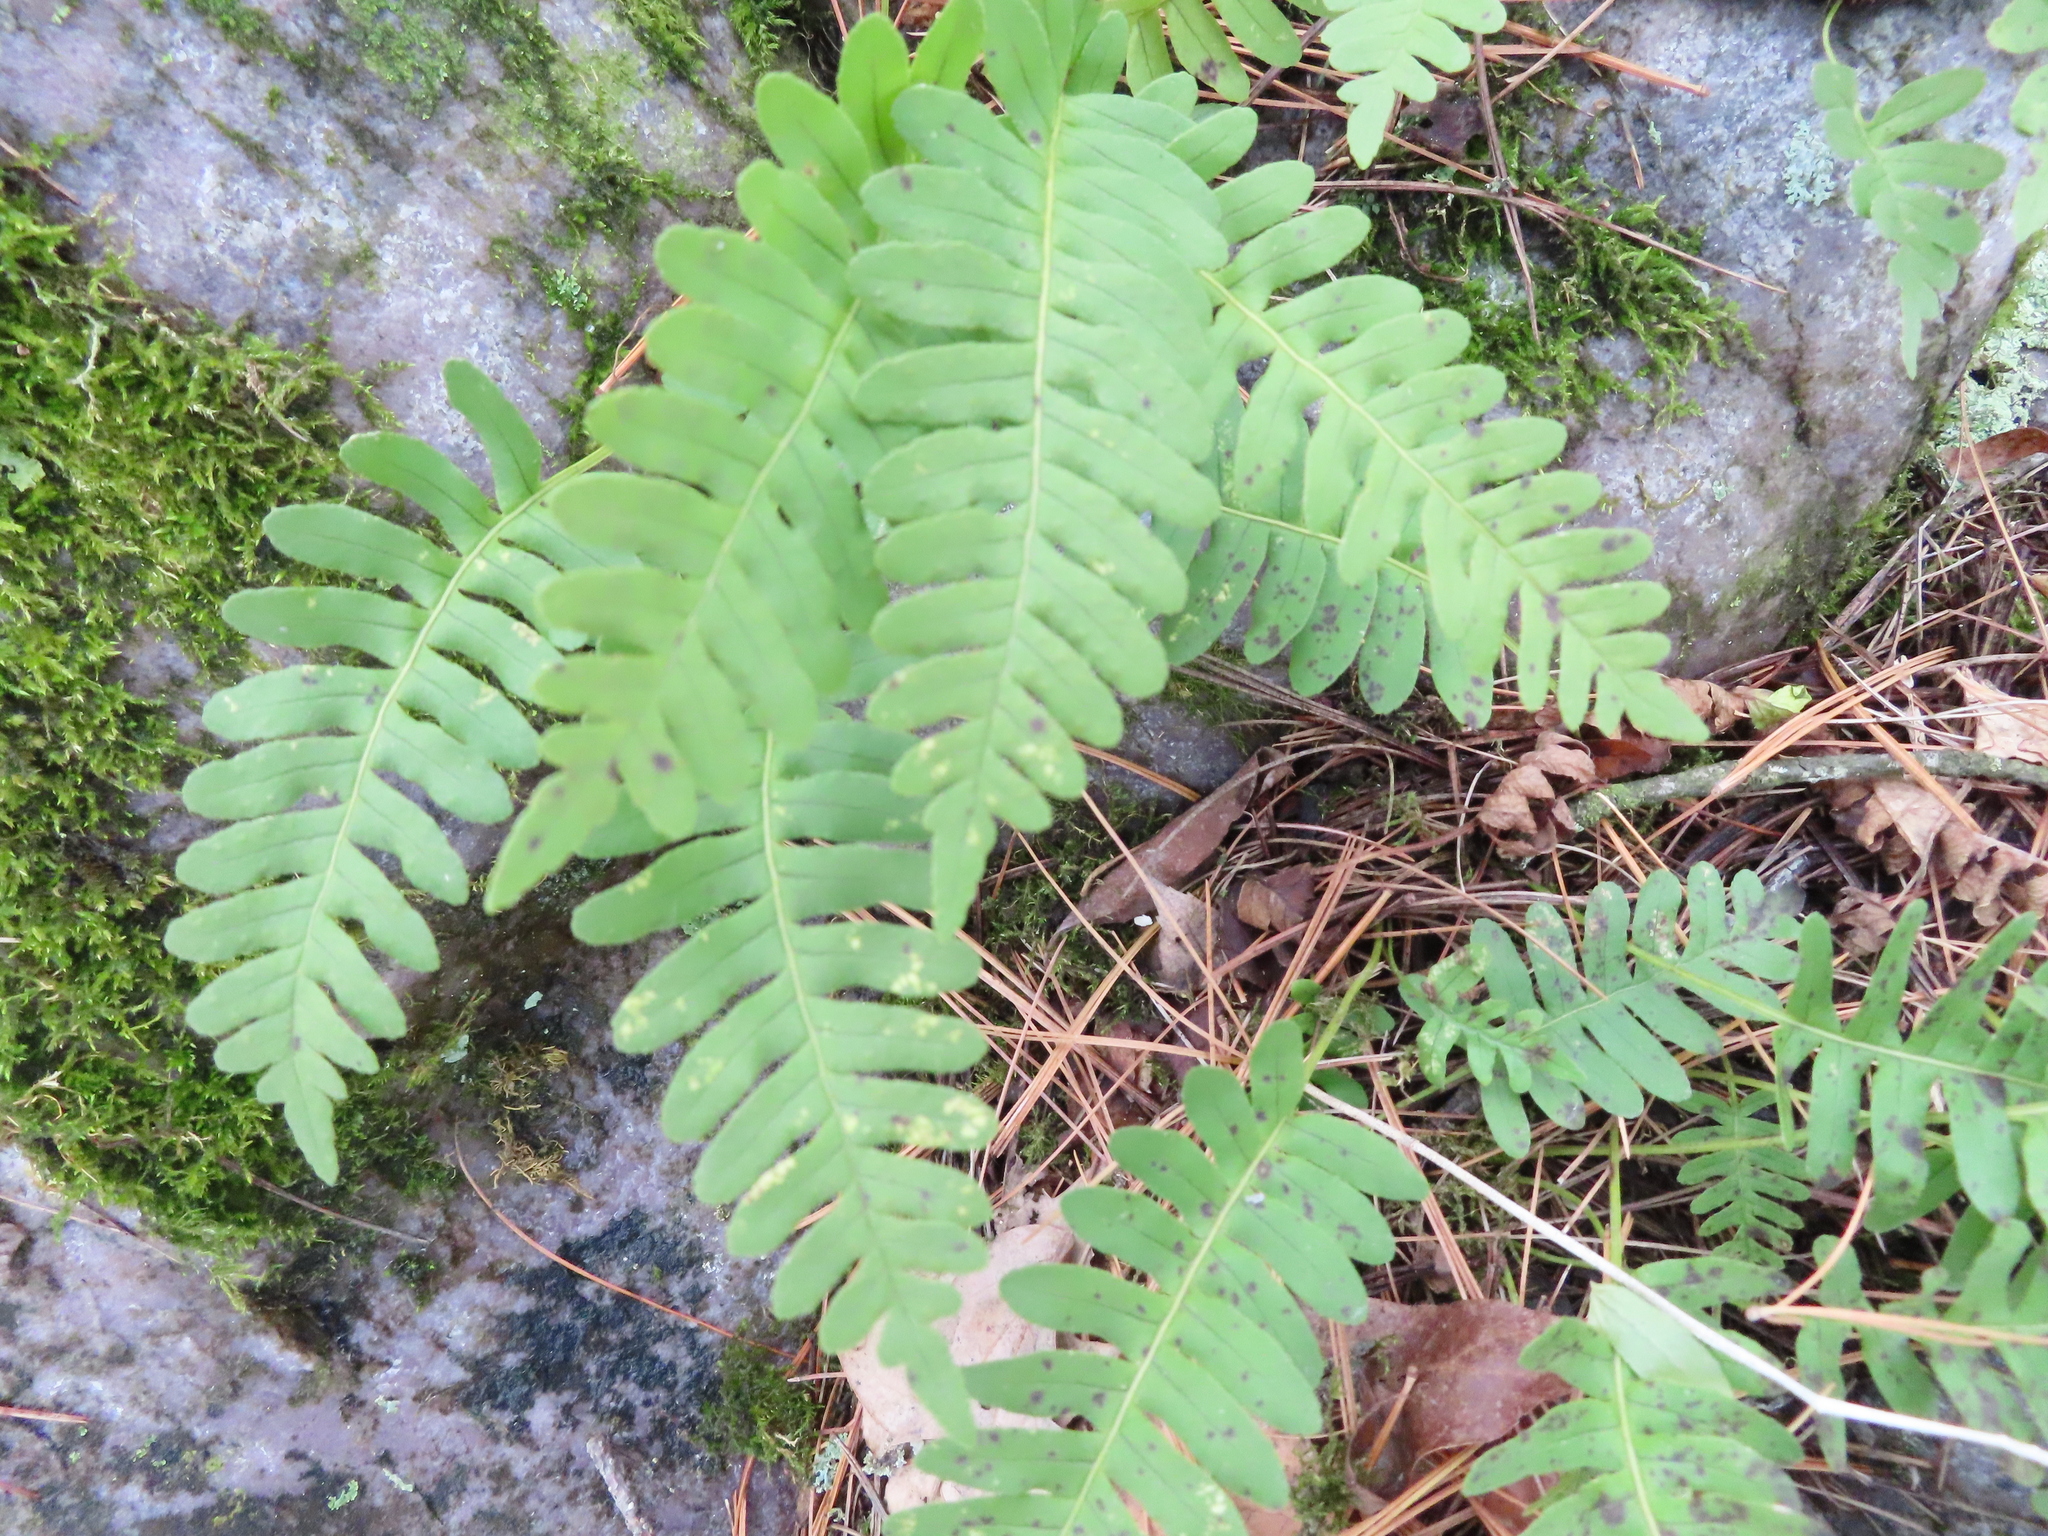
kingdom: Plantae
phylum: Tracheophyta
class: Polypodiopsida
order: Polypodiales
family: Polypodiaceae
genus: Polypodium
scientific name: Polypodium virginianum
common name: American wall fern
